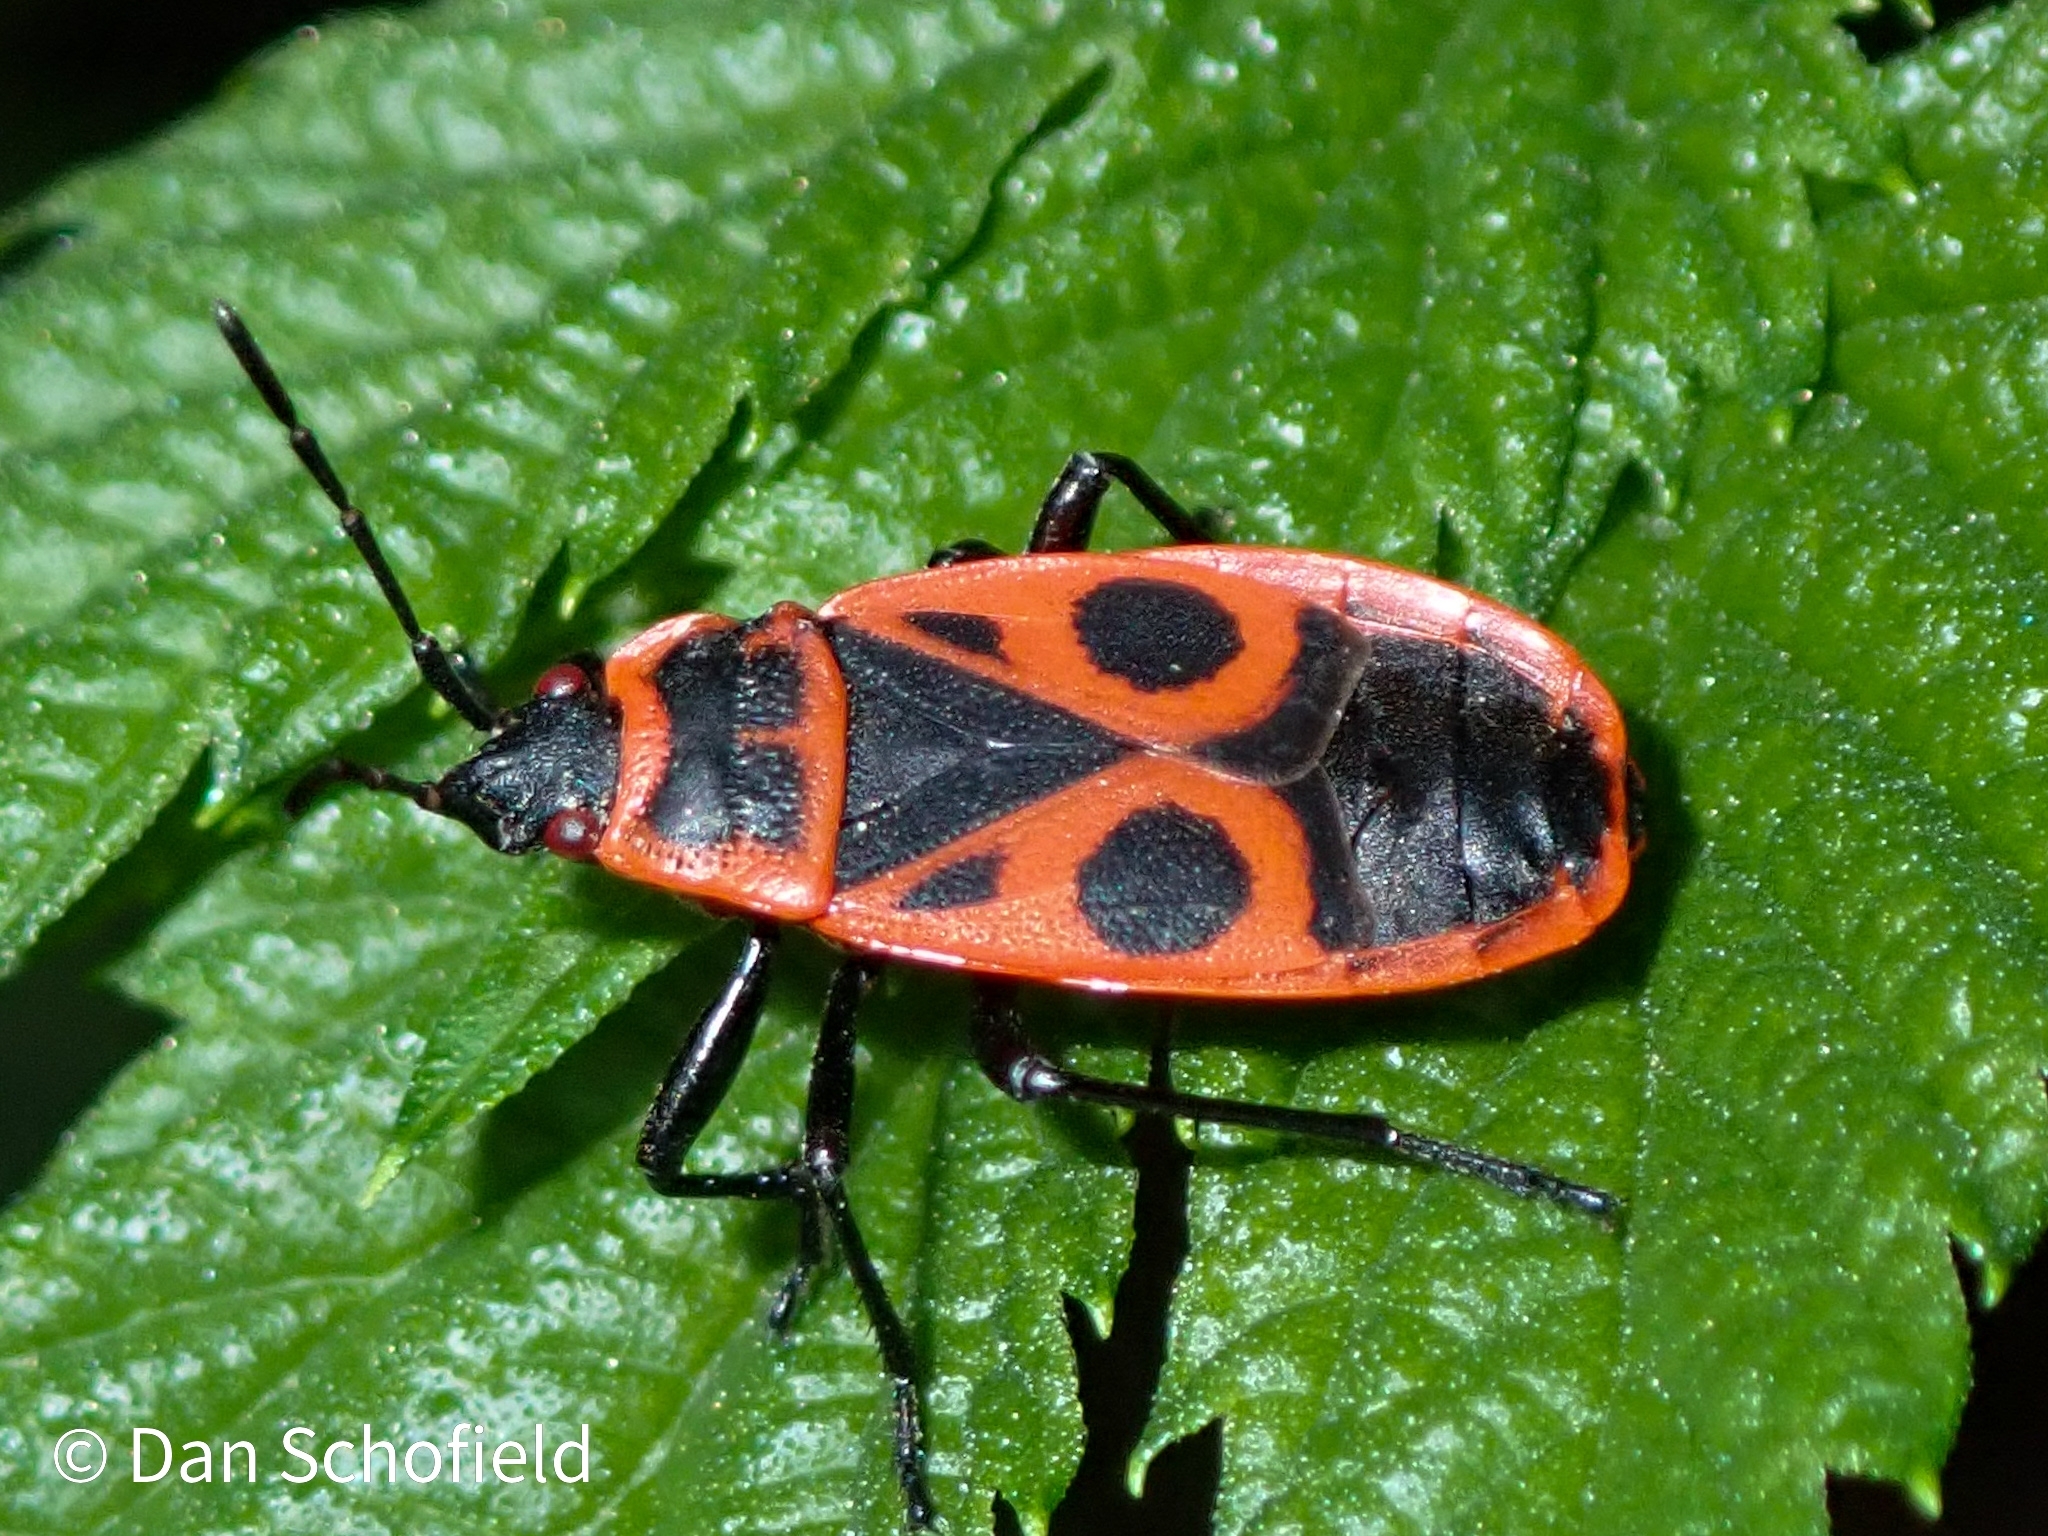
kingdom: Animalia
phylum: Arthropoda
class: Insecta
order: Hemiptera
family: Pyrrhocoridae
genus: Pyrrhocoris
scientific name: Pyrrhocoris apterus
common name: Firebug
